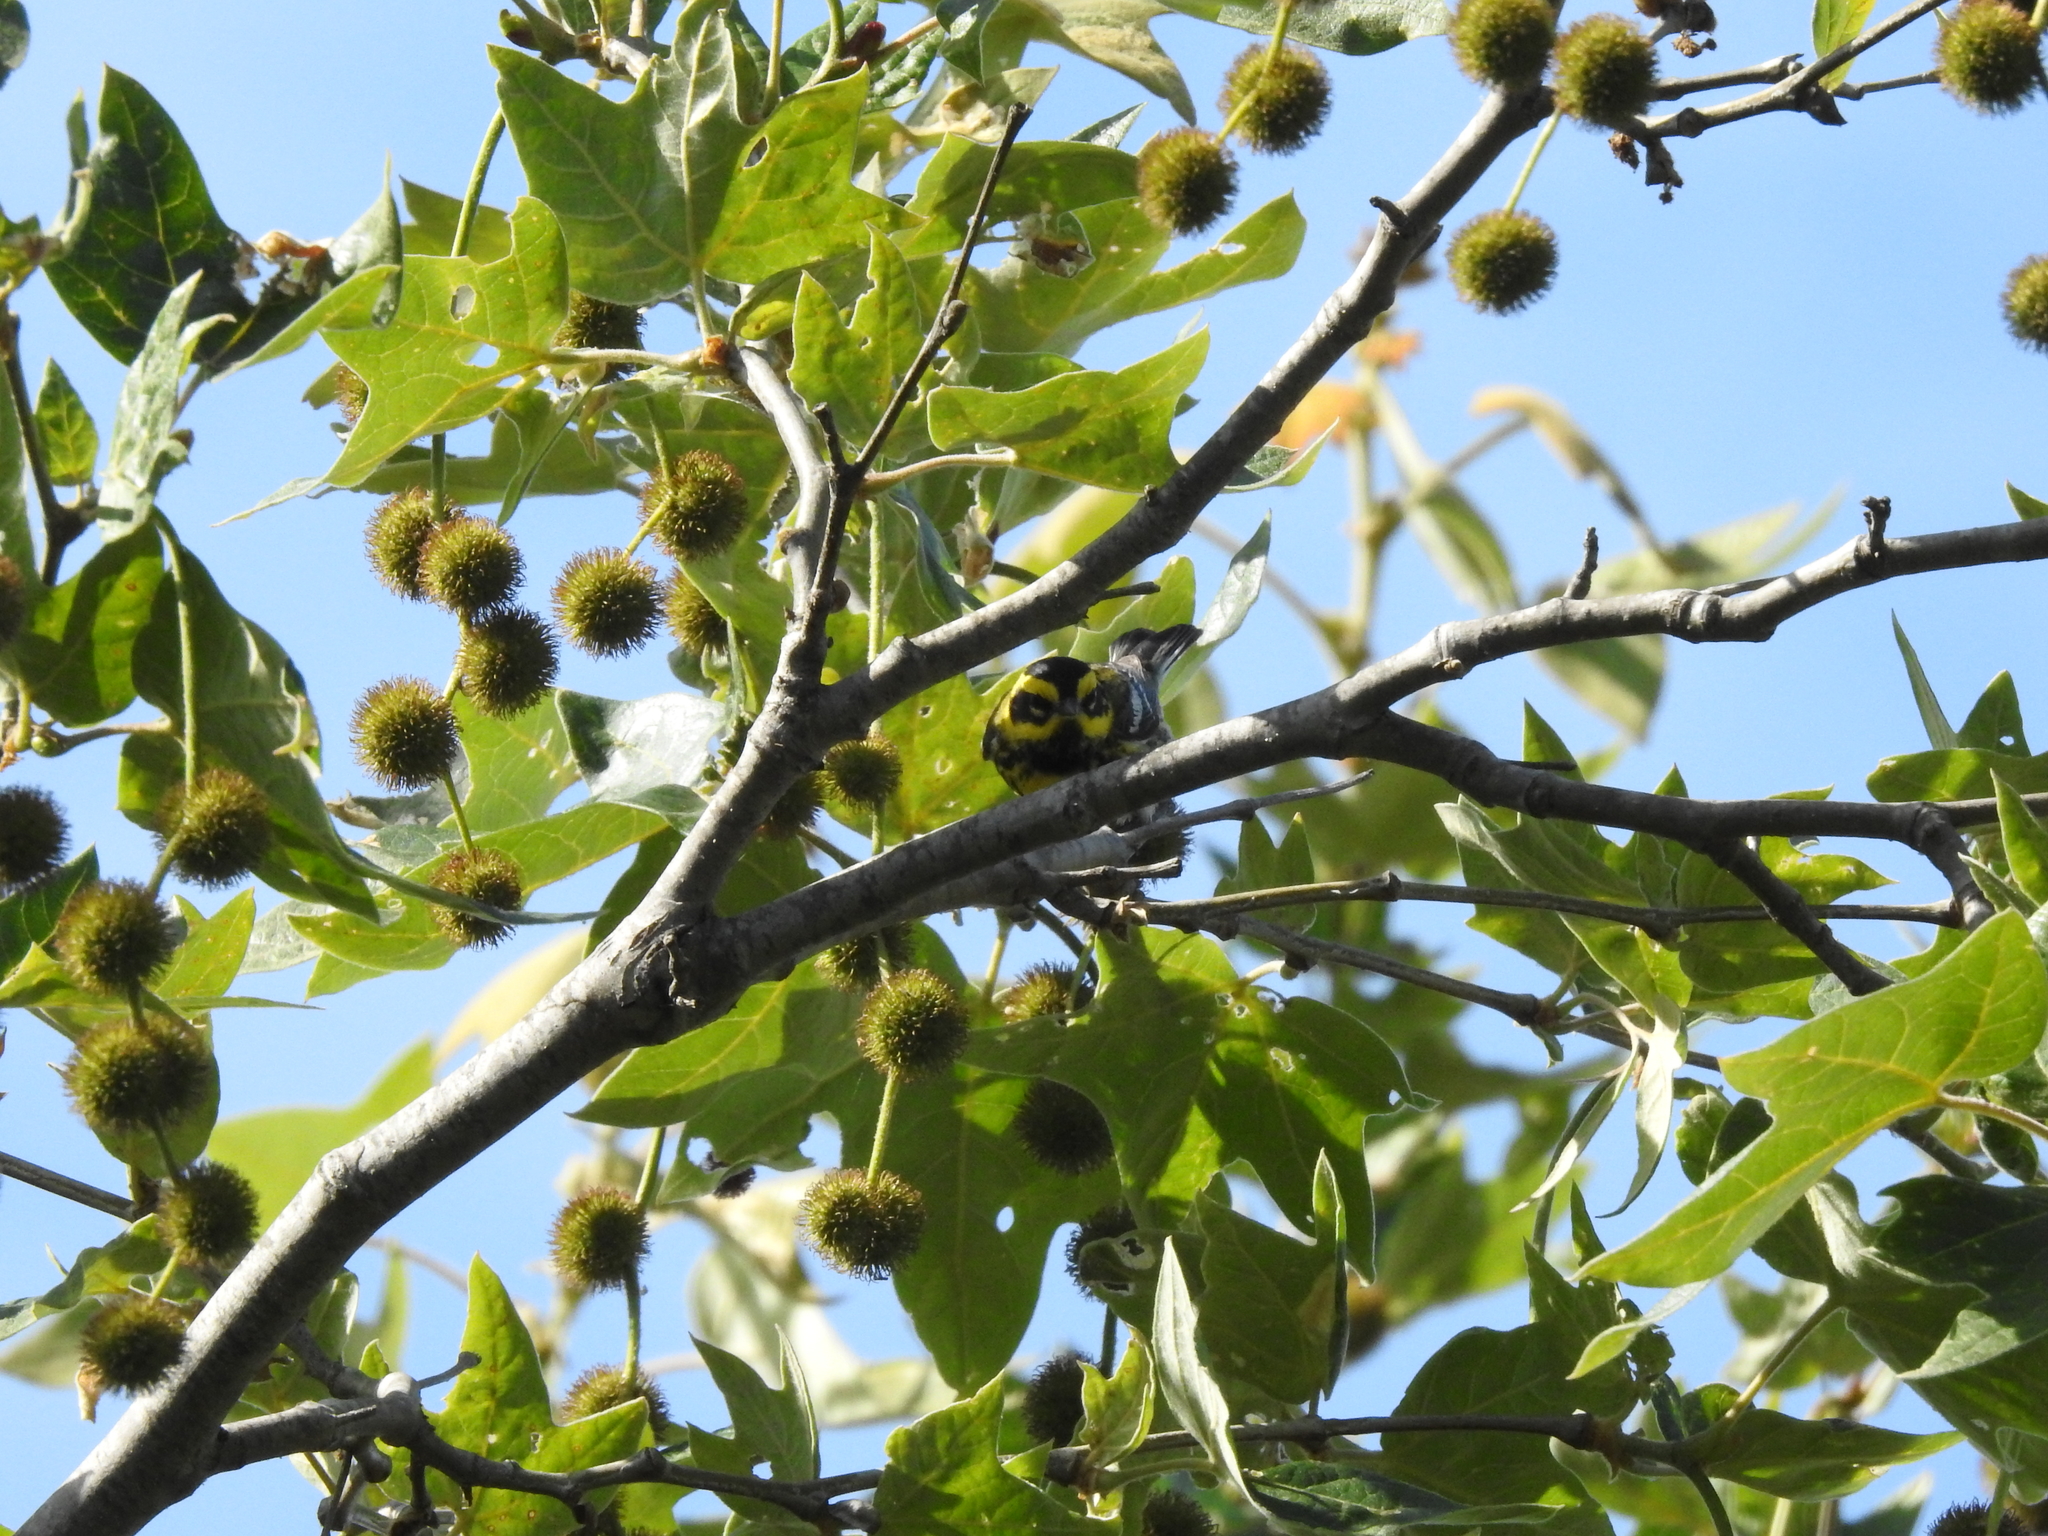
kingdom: Animalia
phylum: Chordata
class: Aves
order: Passeriformes
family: Parulidae
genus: Setophaga
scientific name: Setophaga townsendi
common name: Townsend's warbler
